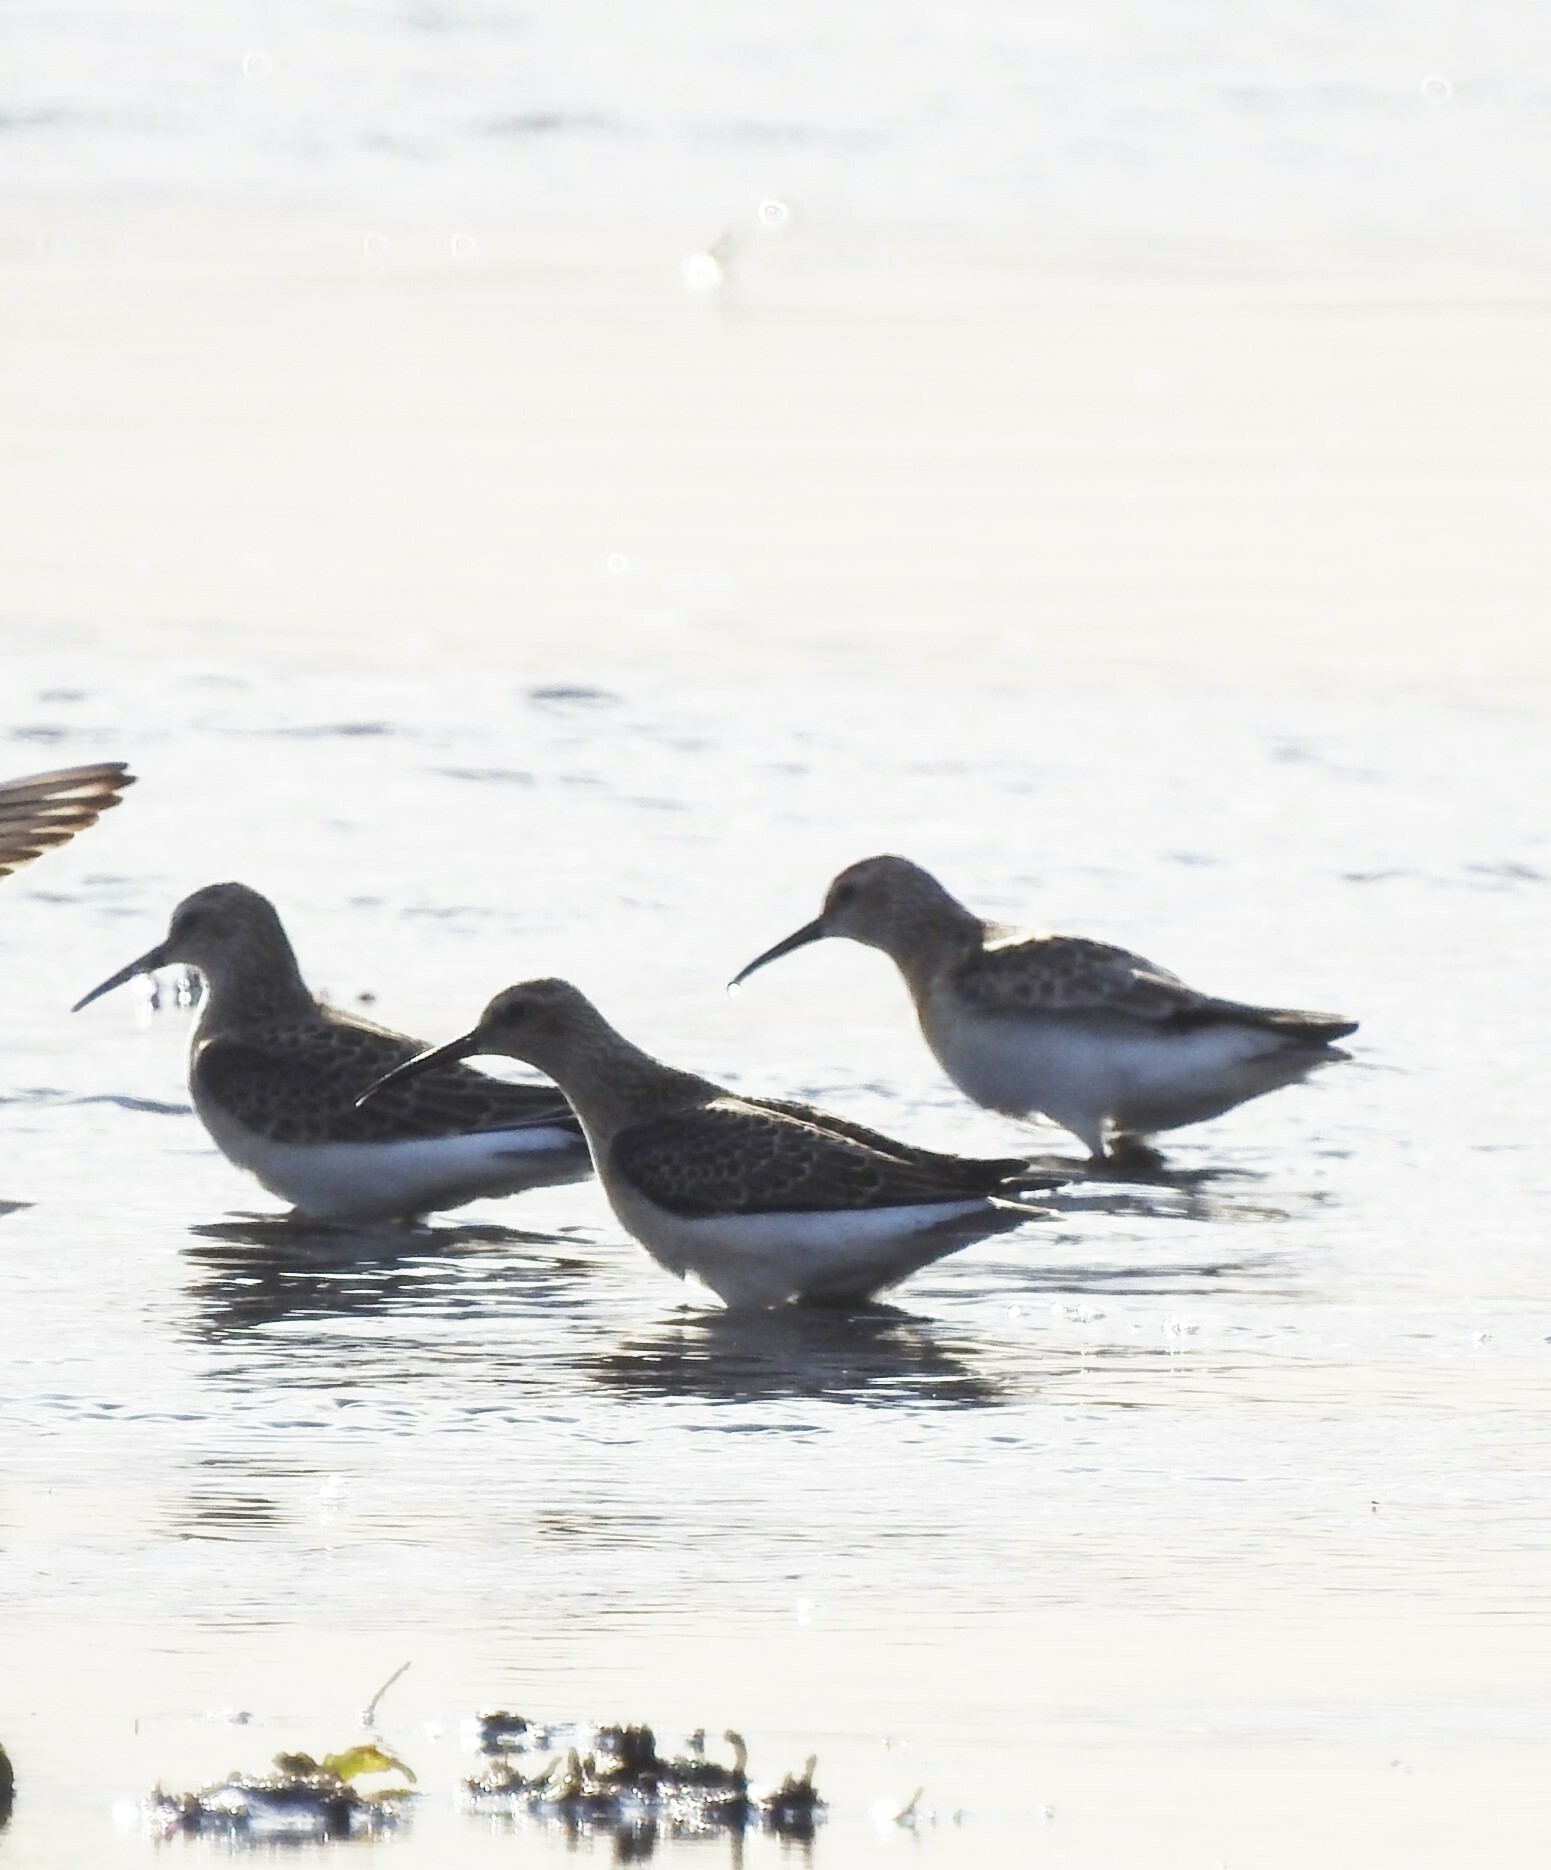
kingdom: Animalia
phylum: Chordata
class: Aves
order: Charadriiformes
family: Scolopacidae
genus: Calidris
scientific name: Calidris ferruginea
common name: Curlew sandpiper
